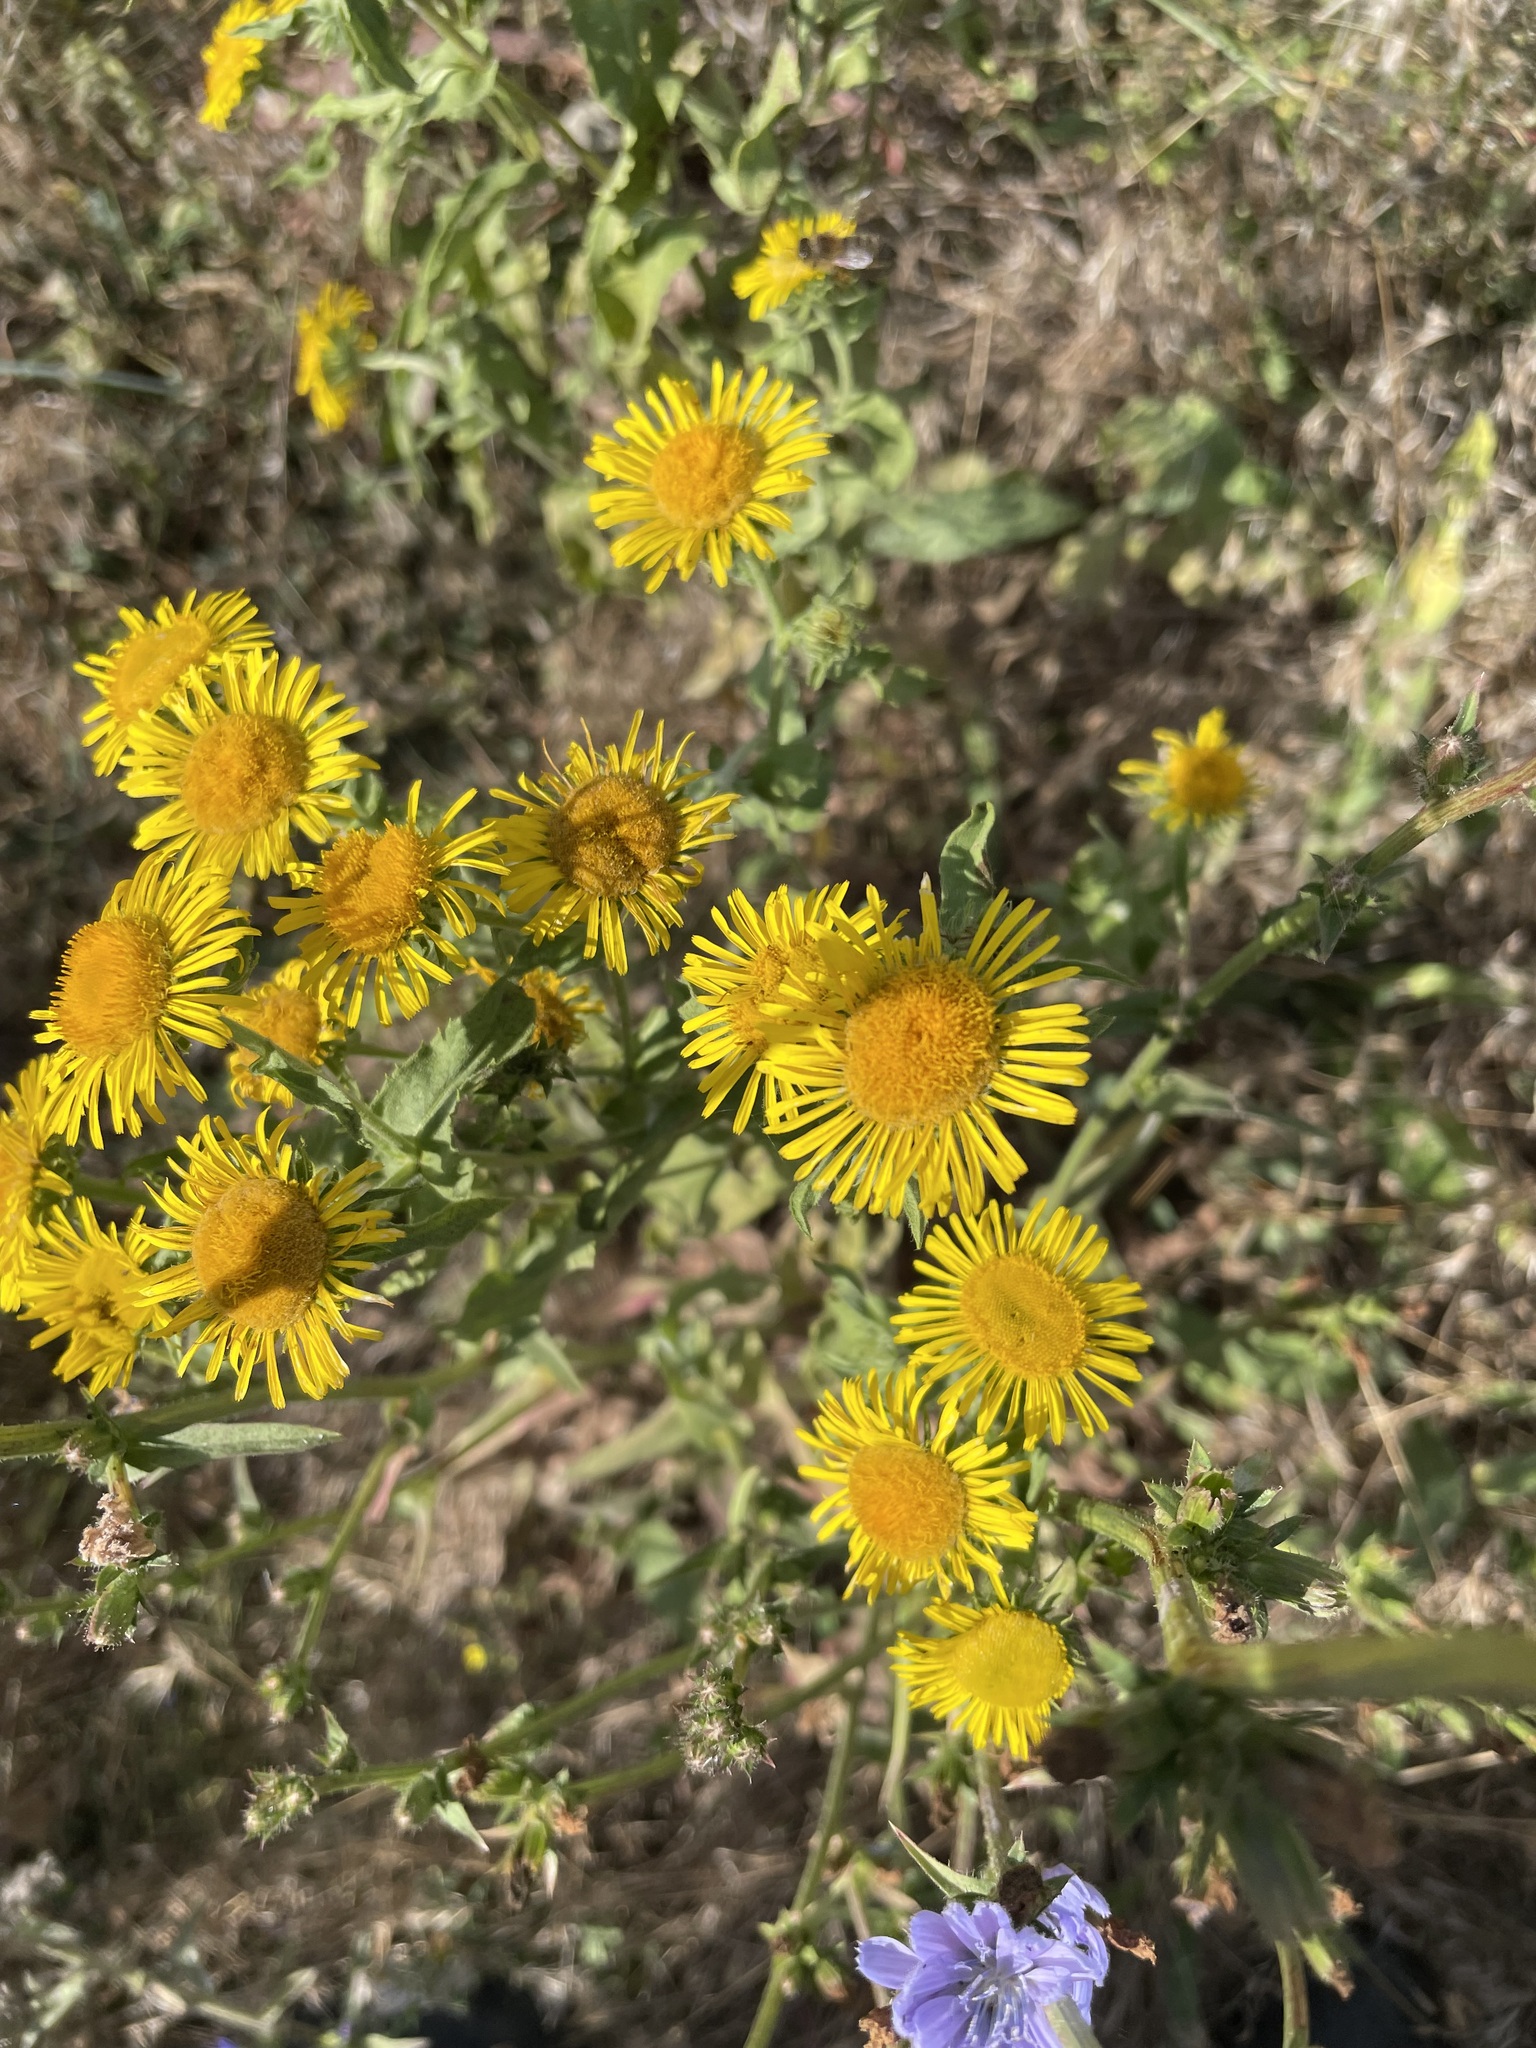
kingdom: Plantae
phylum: Tracheophyta
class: Magnoliopsida
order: Asterales
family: Asteraceae
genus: Pentanema
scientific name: Pentanema britannicum
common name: British elecampane
